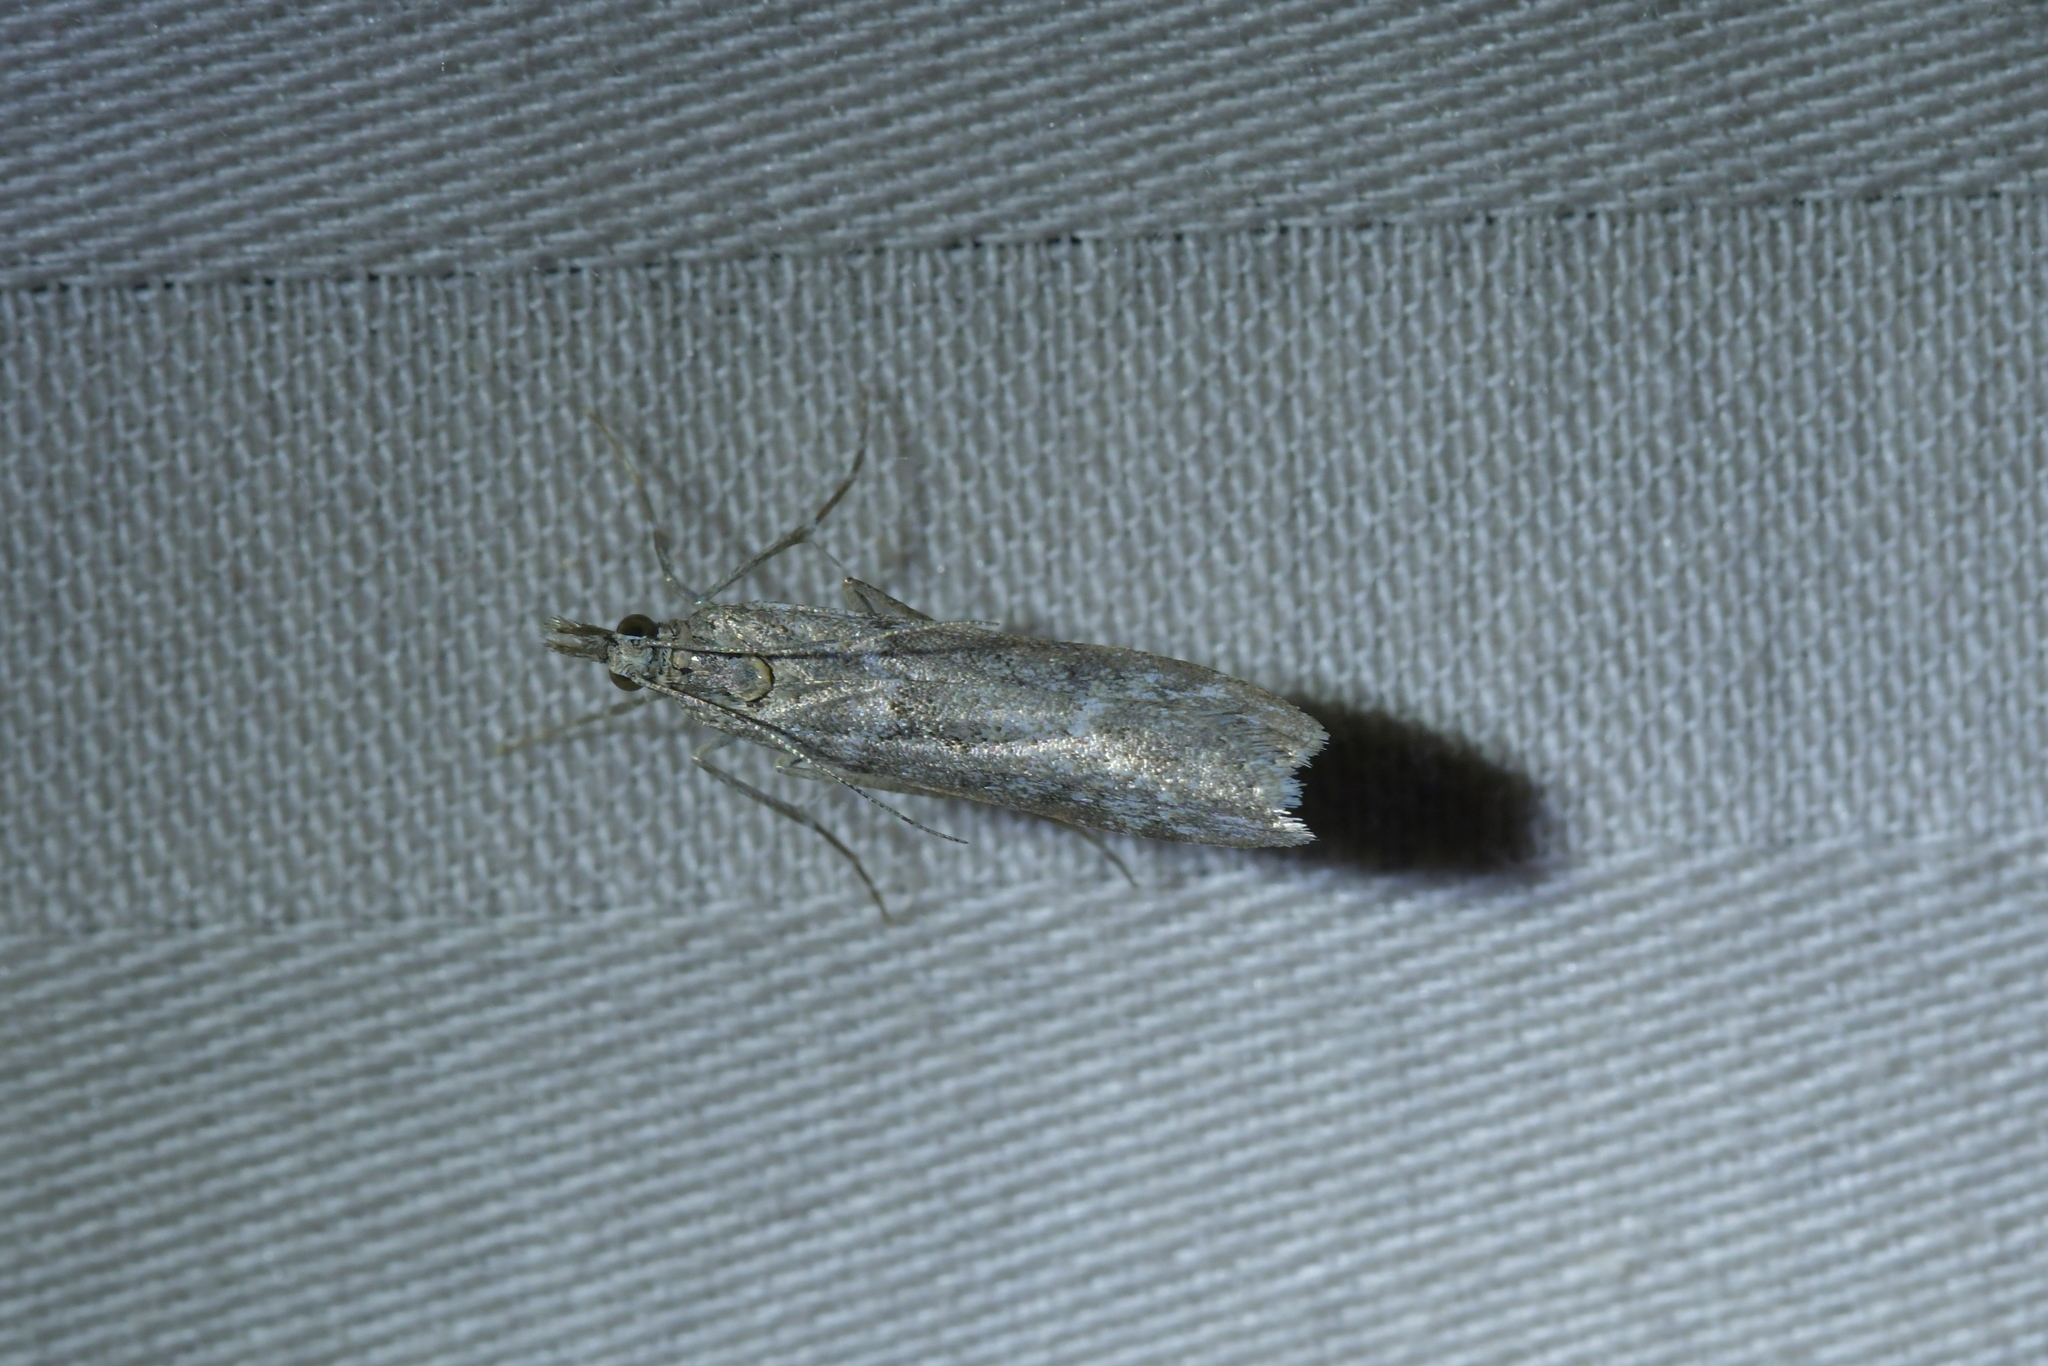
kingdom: Animalia
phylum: Arthropoda
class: Insecta
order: Lepidoptera
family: Crambidae
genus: Eudonia
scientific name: Eudonia leptalea
